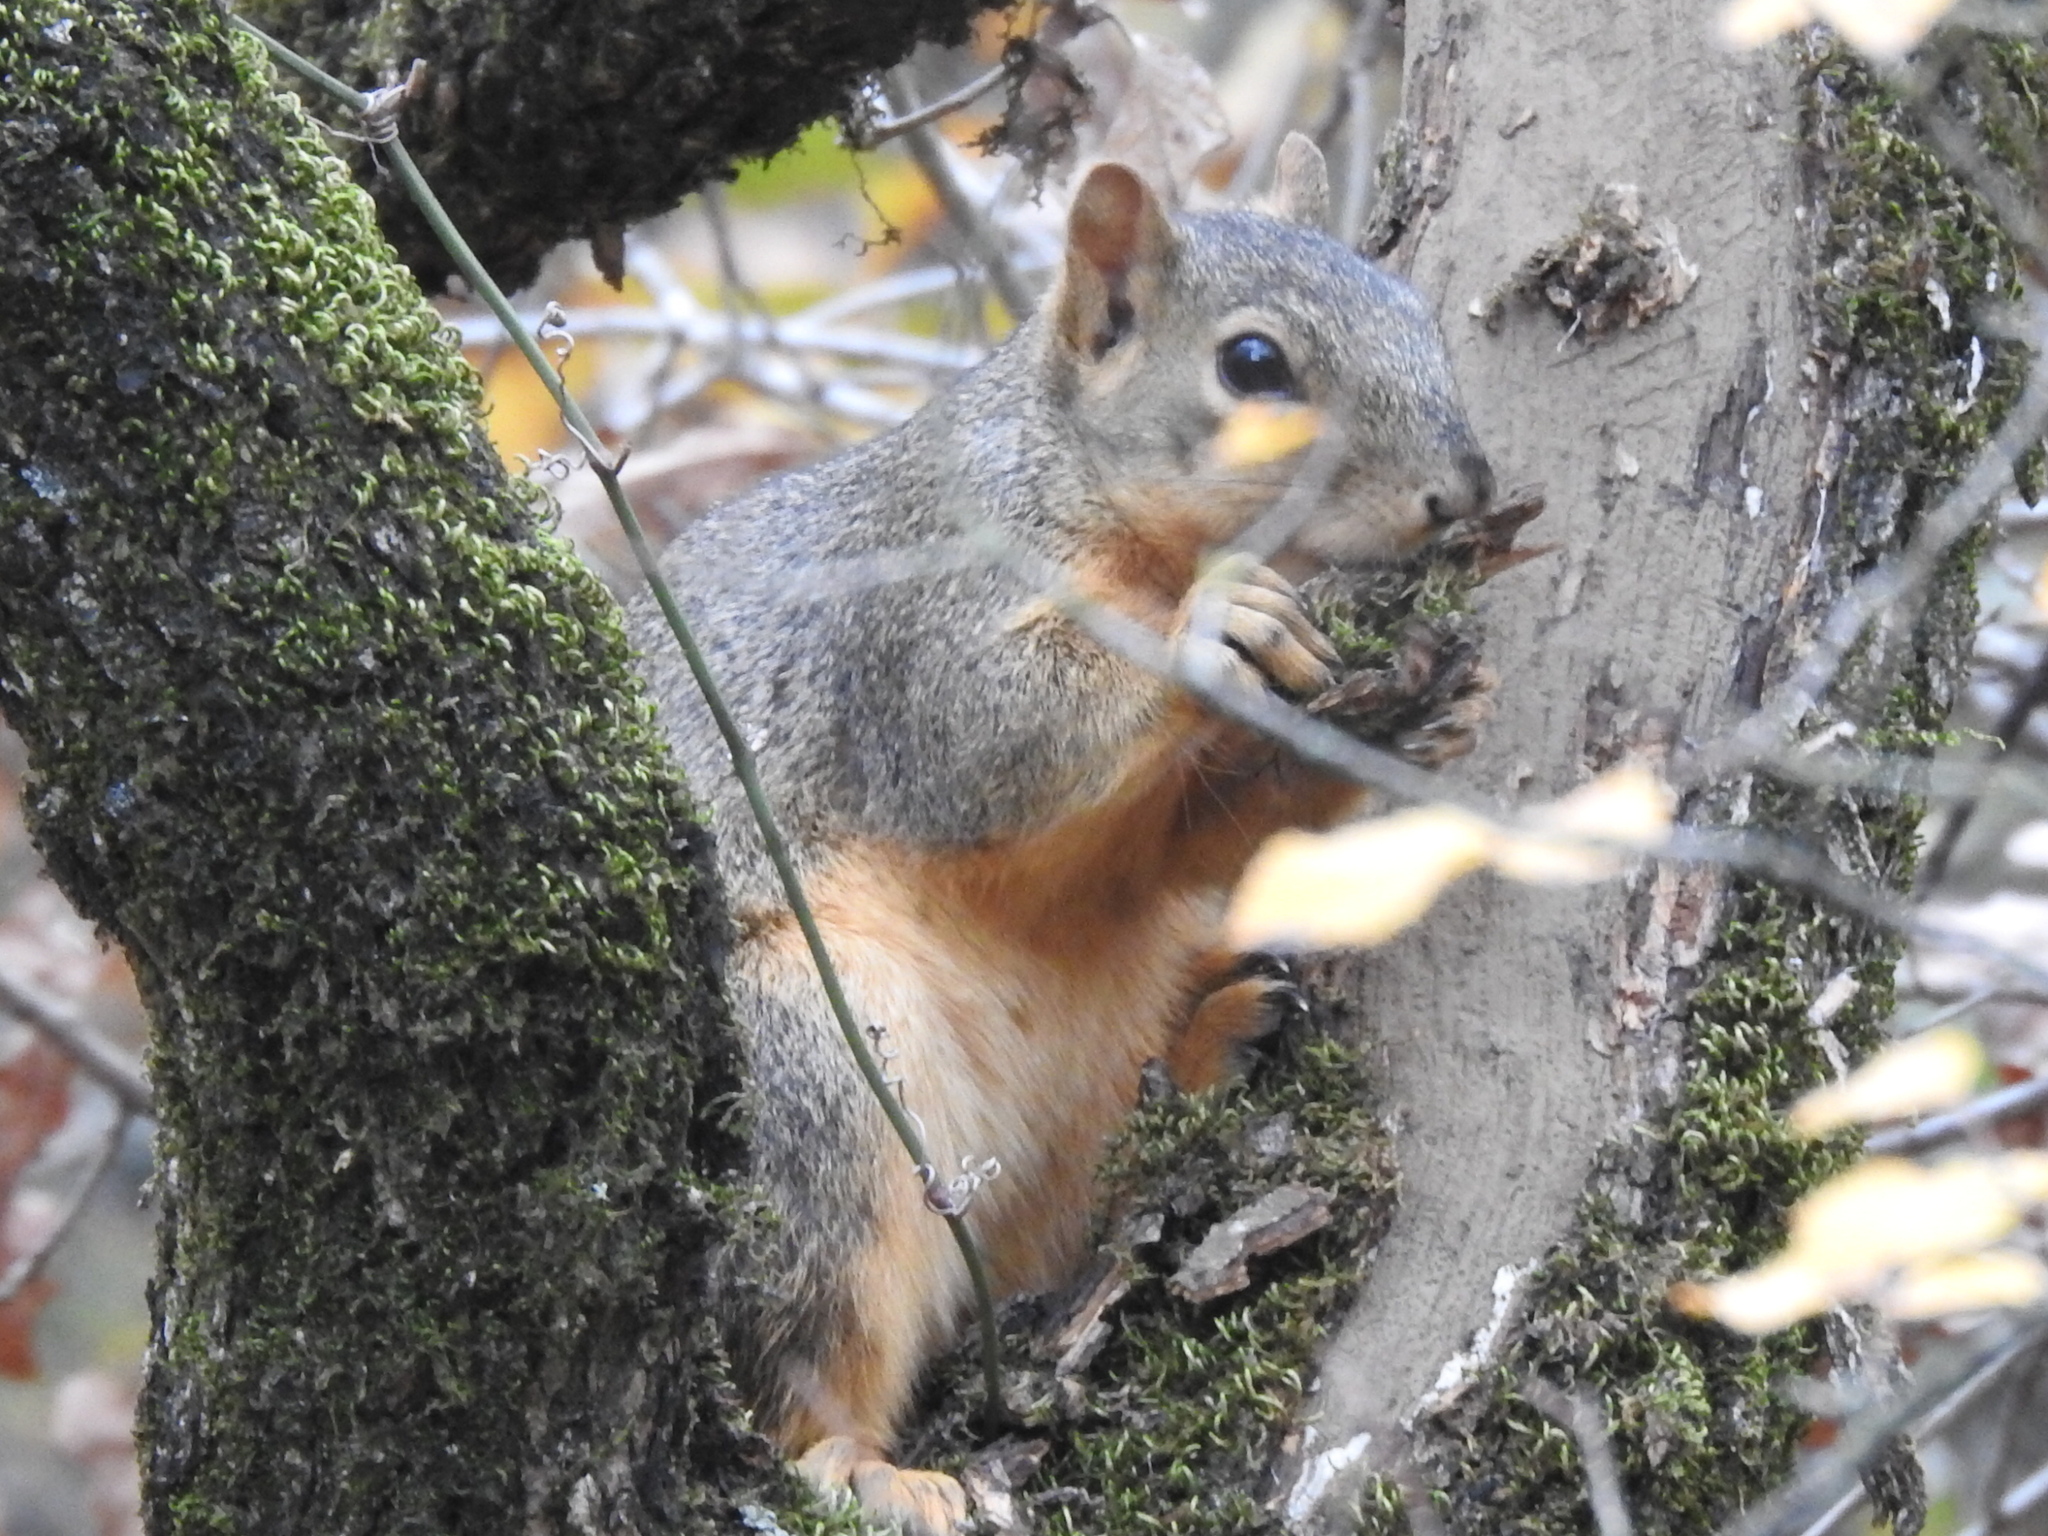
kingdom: Animalia
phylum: Chordata
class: Mammalia
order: Rodentia
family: Sciuridae
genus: Sciurus
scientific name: Sciurus niger
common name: Fox squirrel
